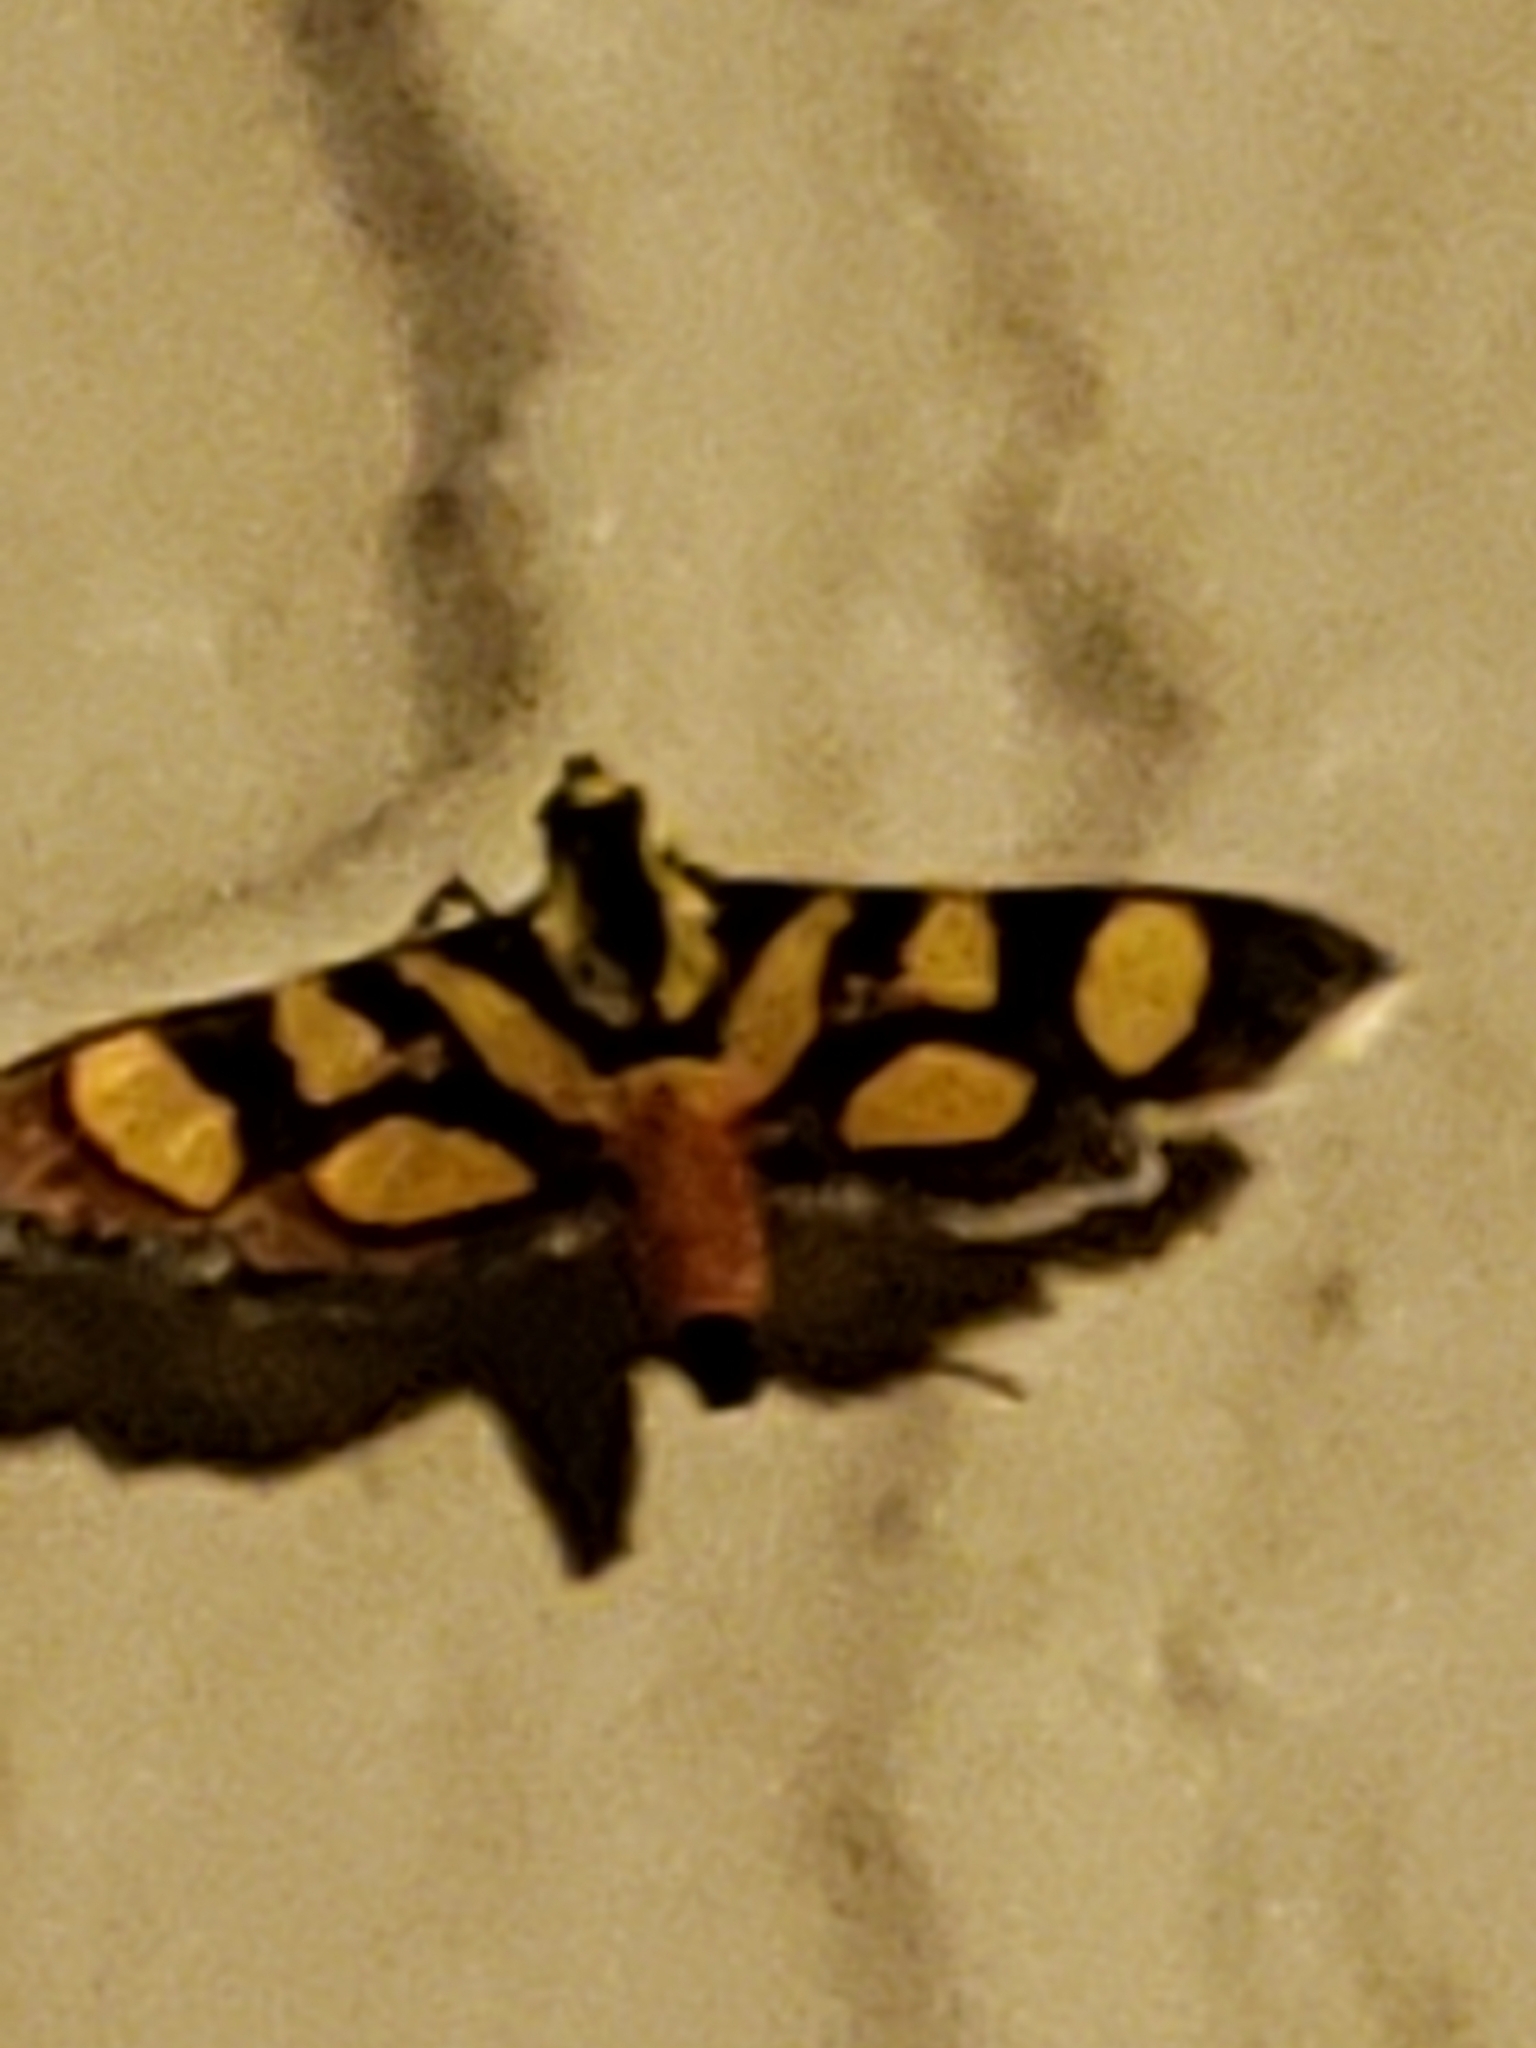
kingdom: Animalia
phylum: Arthropoda
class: Insecta
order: Lepidoptera
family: Crambidae
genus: Syngamia
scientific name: Syngamia florella
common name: Orange-spotted flower moth
